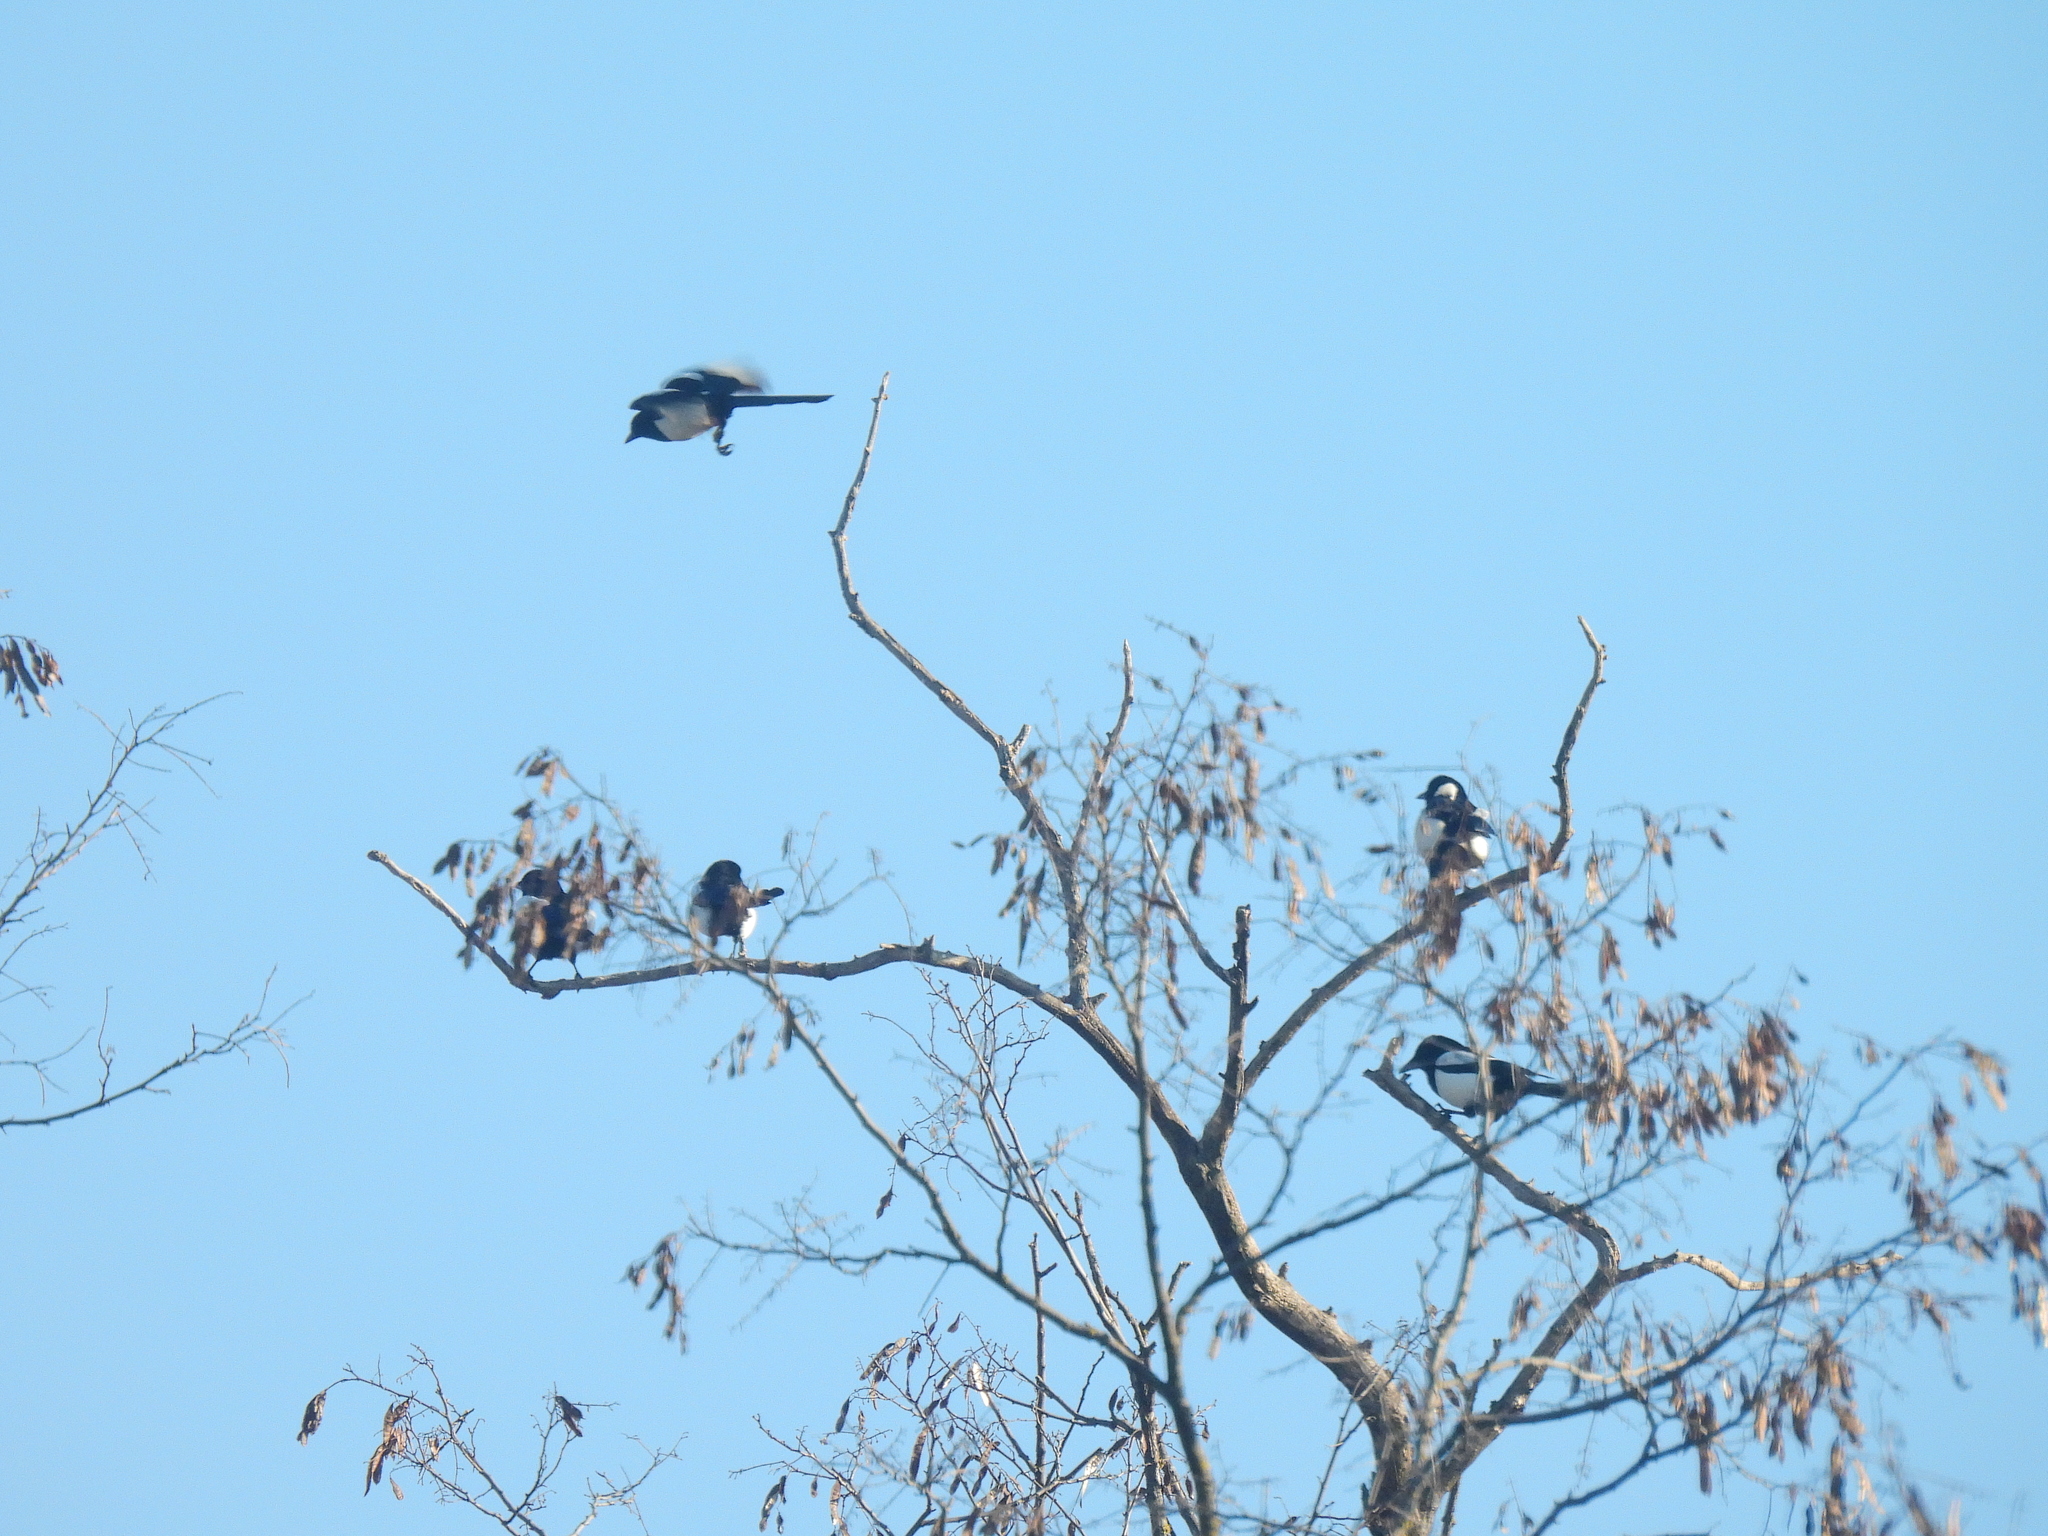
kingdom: Animalia
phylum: Chordata
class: Aves
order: Passeriformes
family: Corvidae
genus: Pica
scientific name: Pica pica
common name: Eurasian magpie
